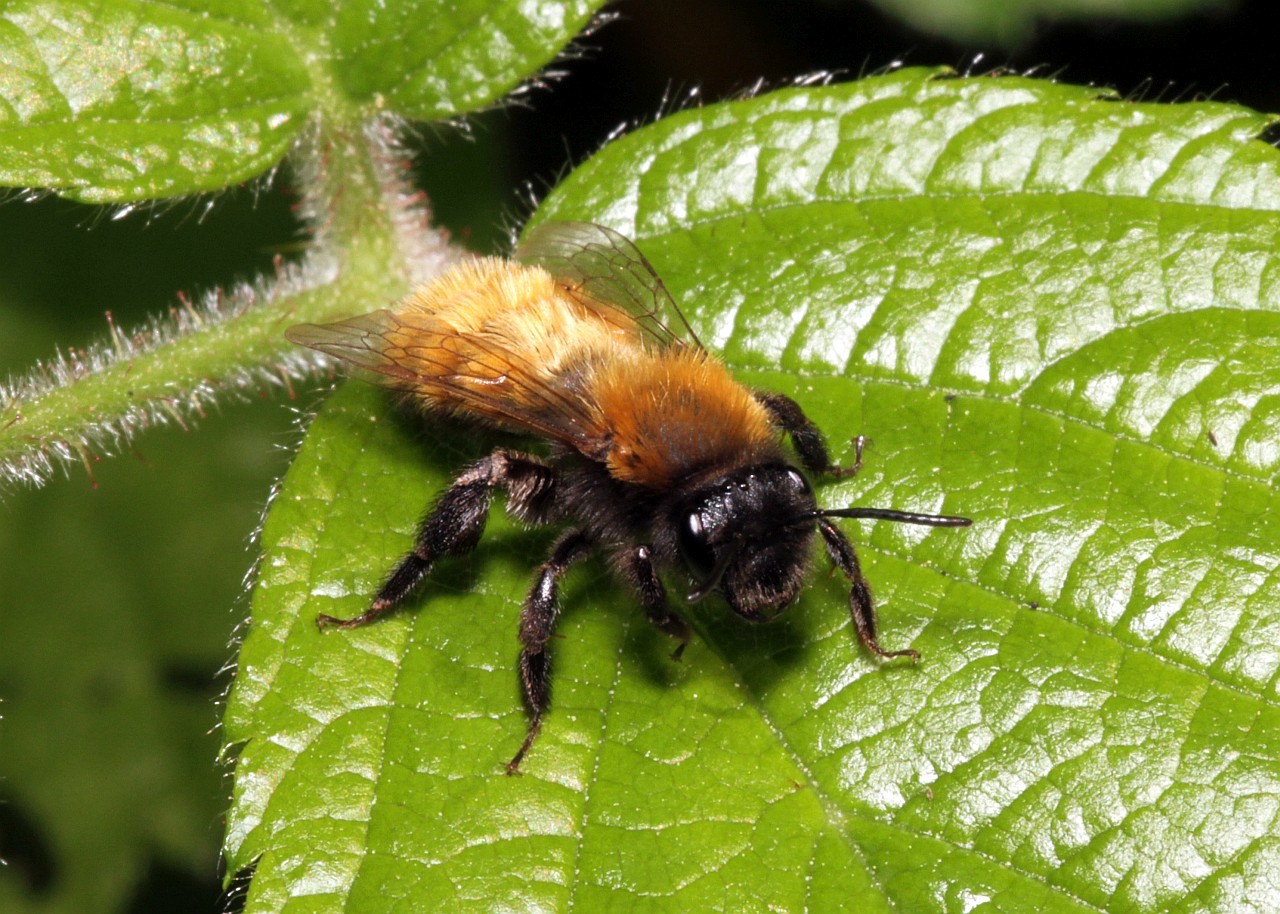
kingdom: Animalia
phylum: Arthropoda
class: Insecta
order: Hymenoptera
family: Andrenidae
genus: Andrena
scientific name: Andrena fulva
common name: Tawny mining bee
